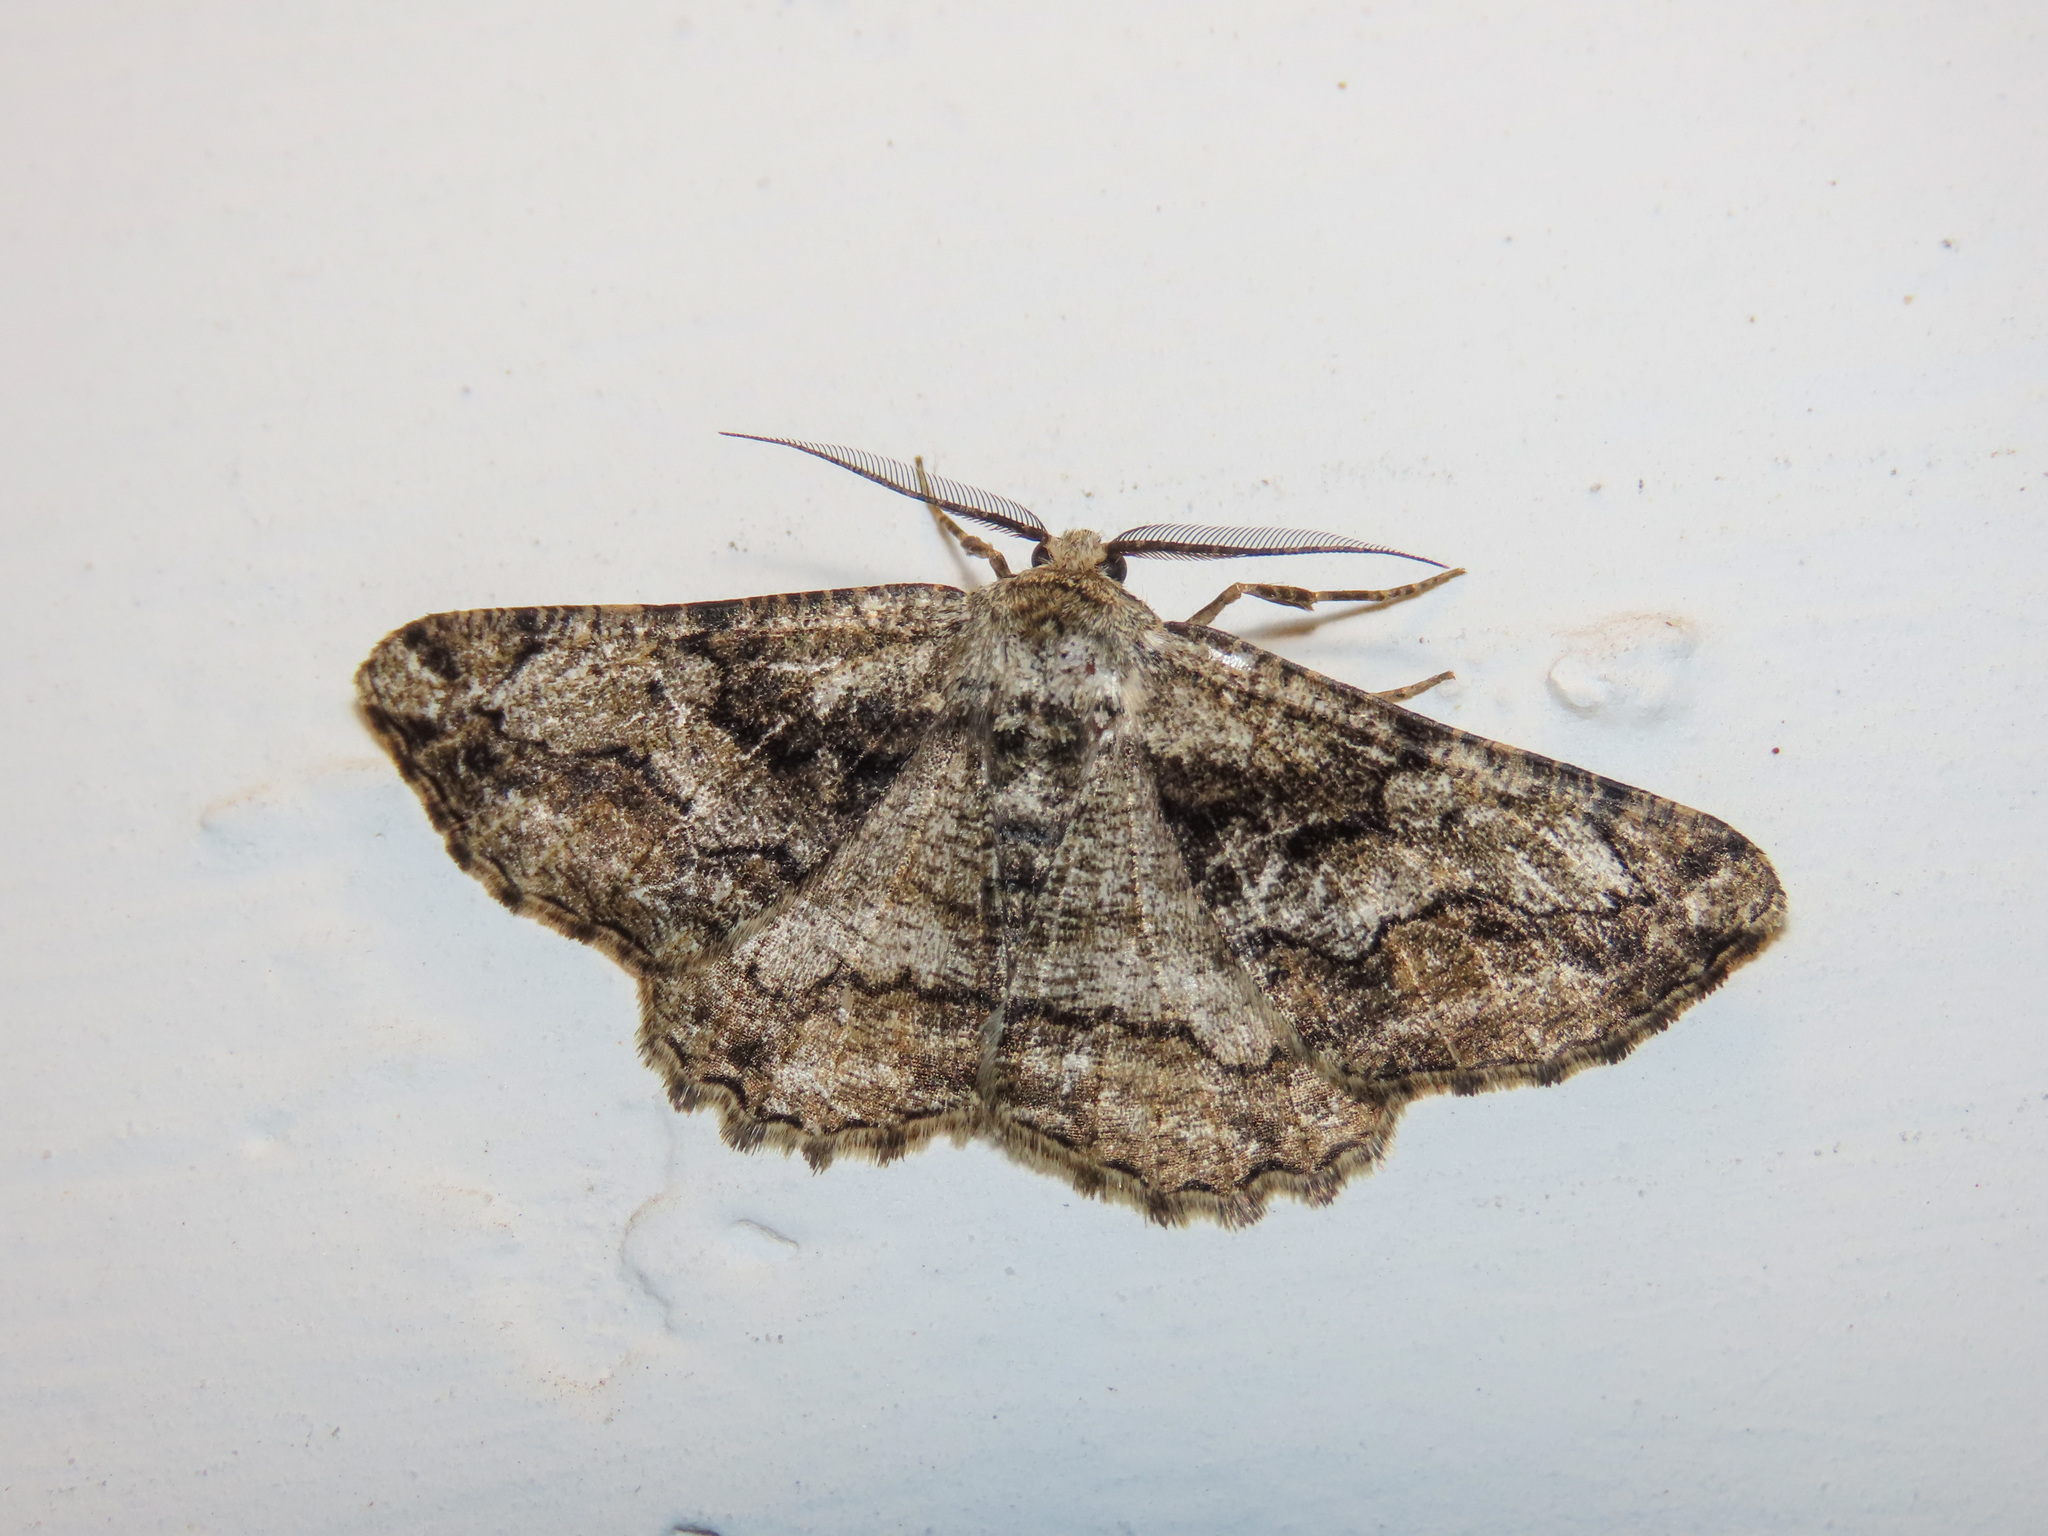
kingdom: Animalia
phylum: Arthropoda
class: Insecta
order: Lepidoptera
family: Geometridae
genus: Synopsia
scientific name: Synopsia sociaria
